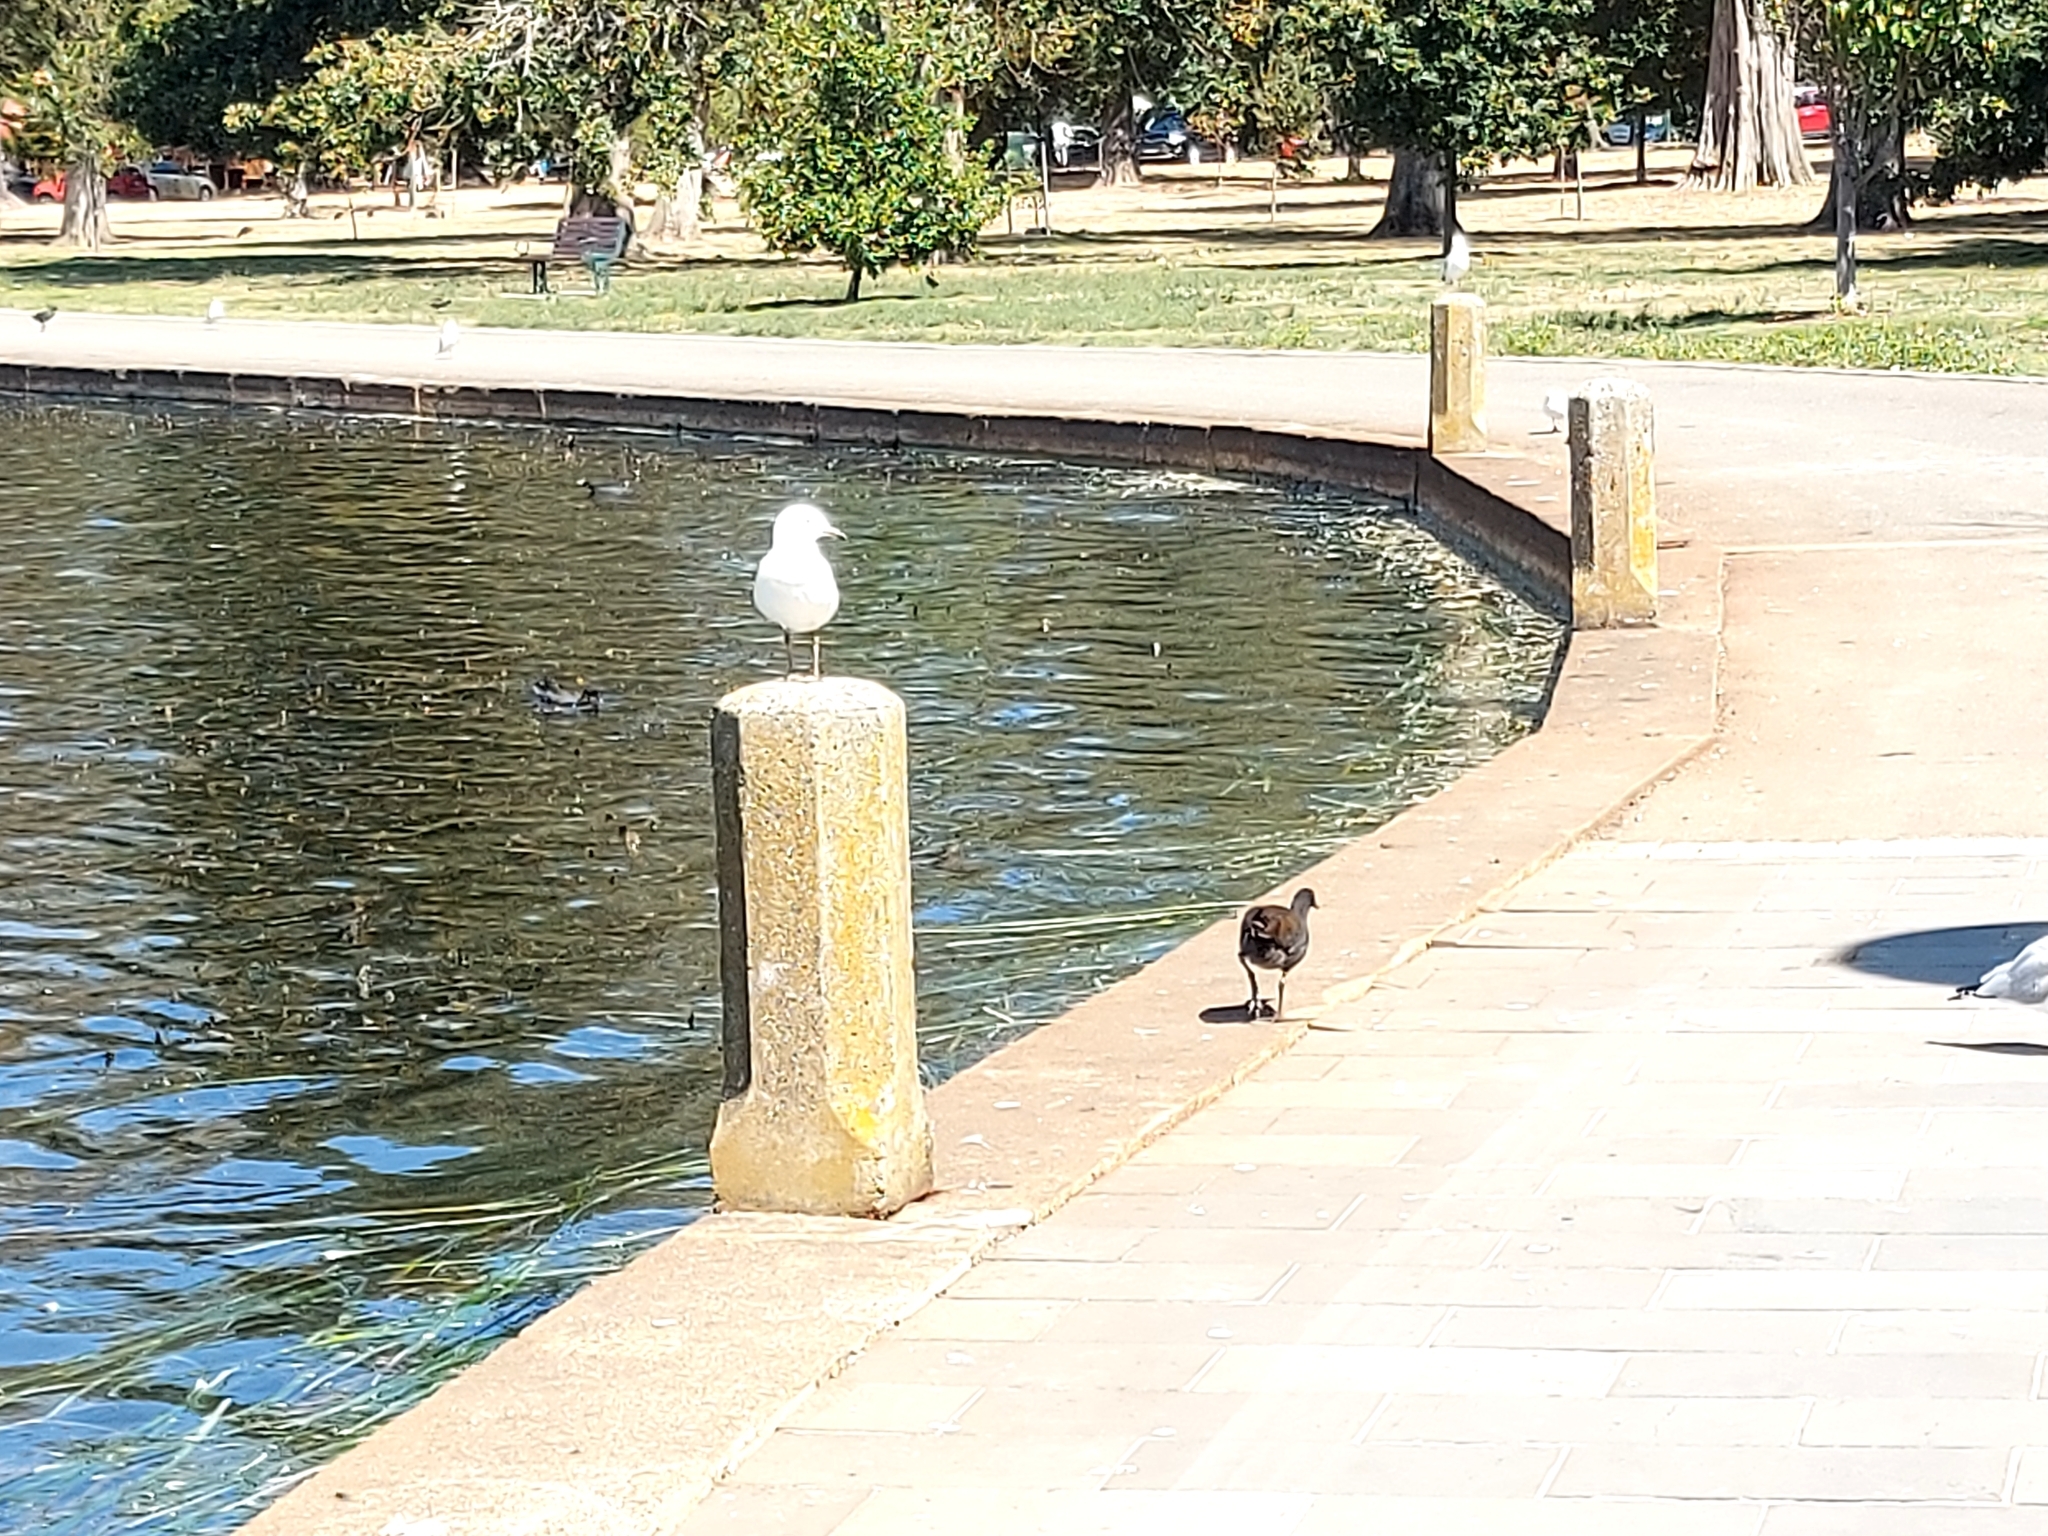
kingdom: Animalia
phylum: Chordata
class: Aves
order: Charadriiformes
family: Laridae
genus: Chroicocephalus
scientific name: Chroicocephalus novaehollandiae
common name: Silver gull
